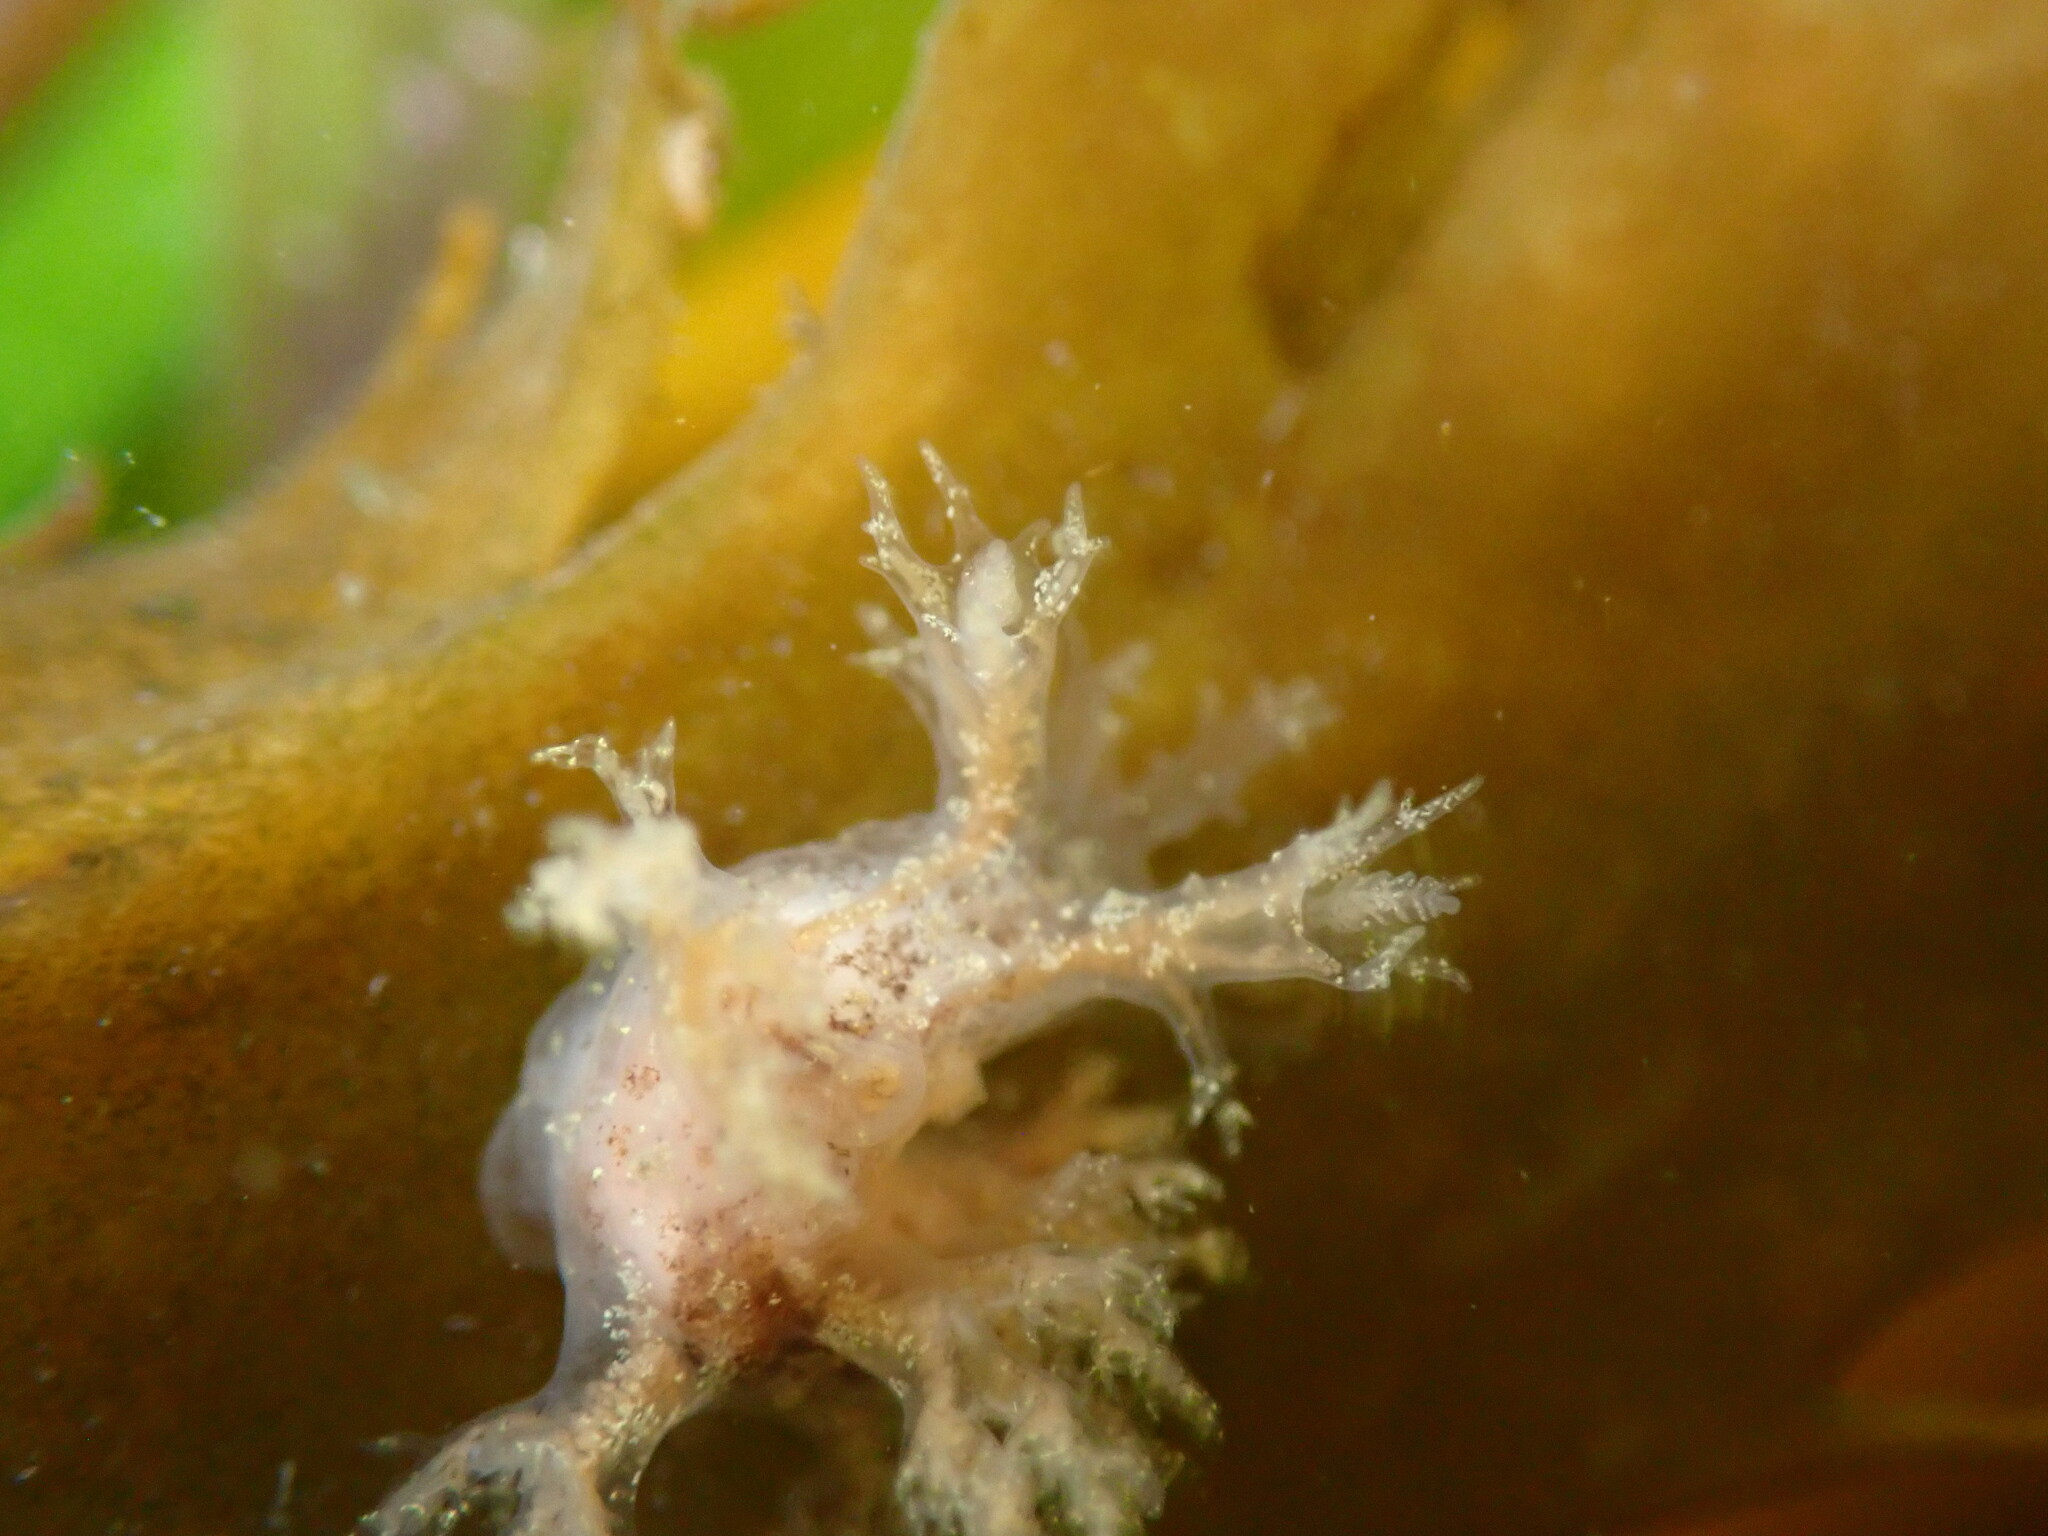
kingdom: Animalia
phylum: Mollusca
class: Gastropoda
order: Nudibranchia
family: Dendronotidae
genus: Dendronotus
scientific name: Dendronotus venustus
